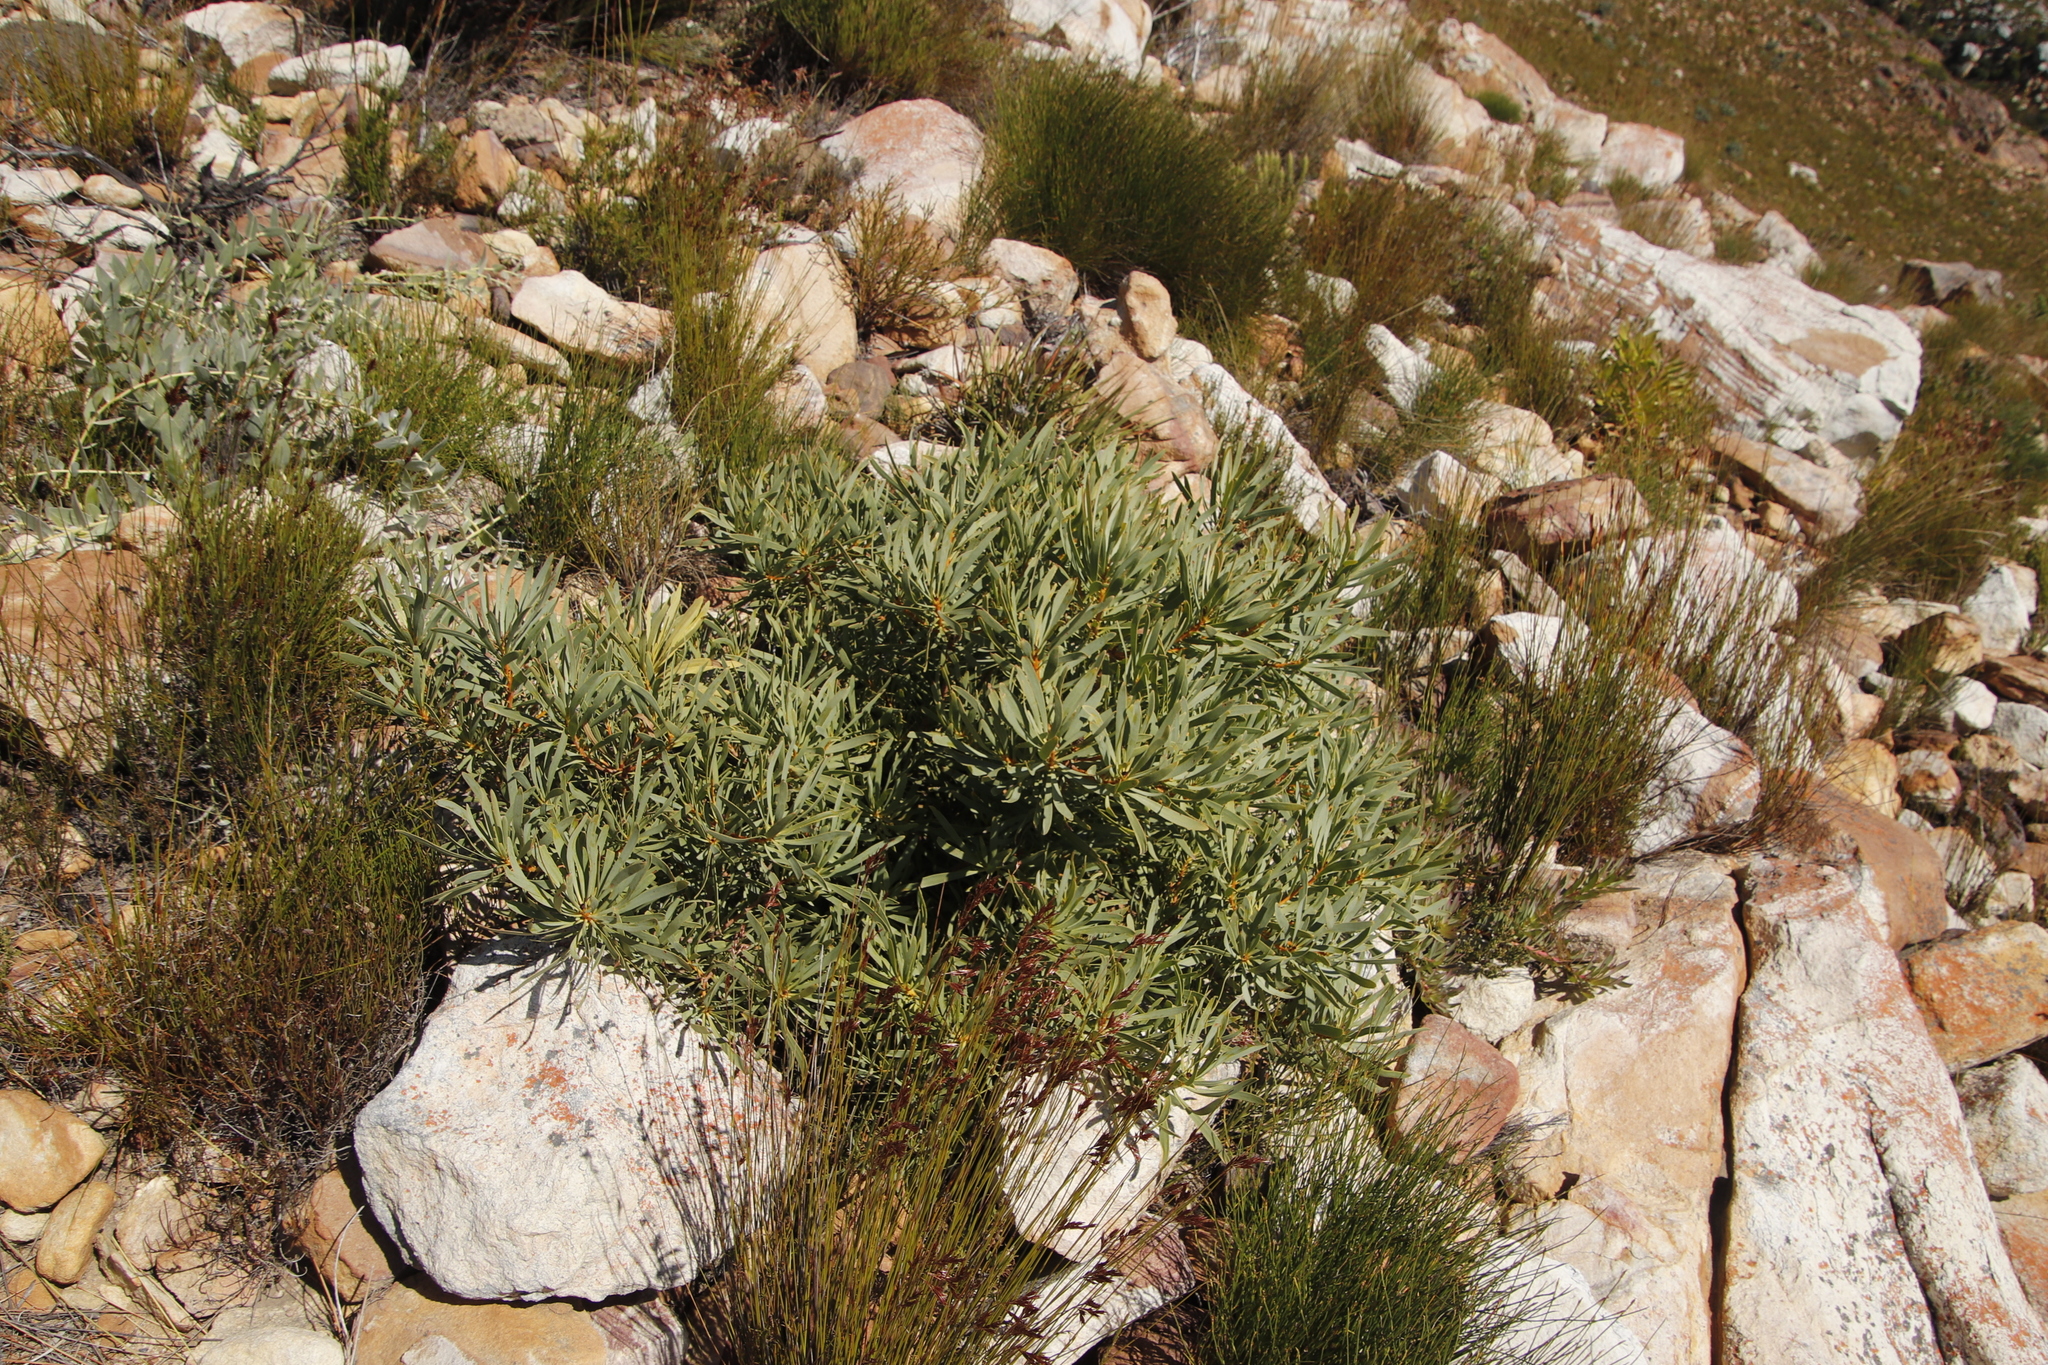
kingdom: Plantae
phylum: Tracheophyta
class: Magnoliopsida
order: Proteales
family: Proteaceae
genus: Protea
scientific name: Protea repens
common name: Sugarbush
